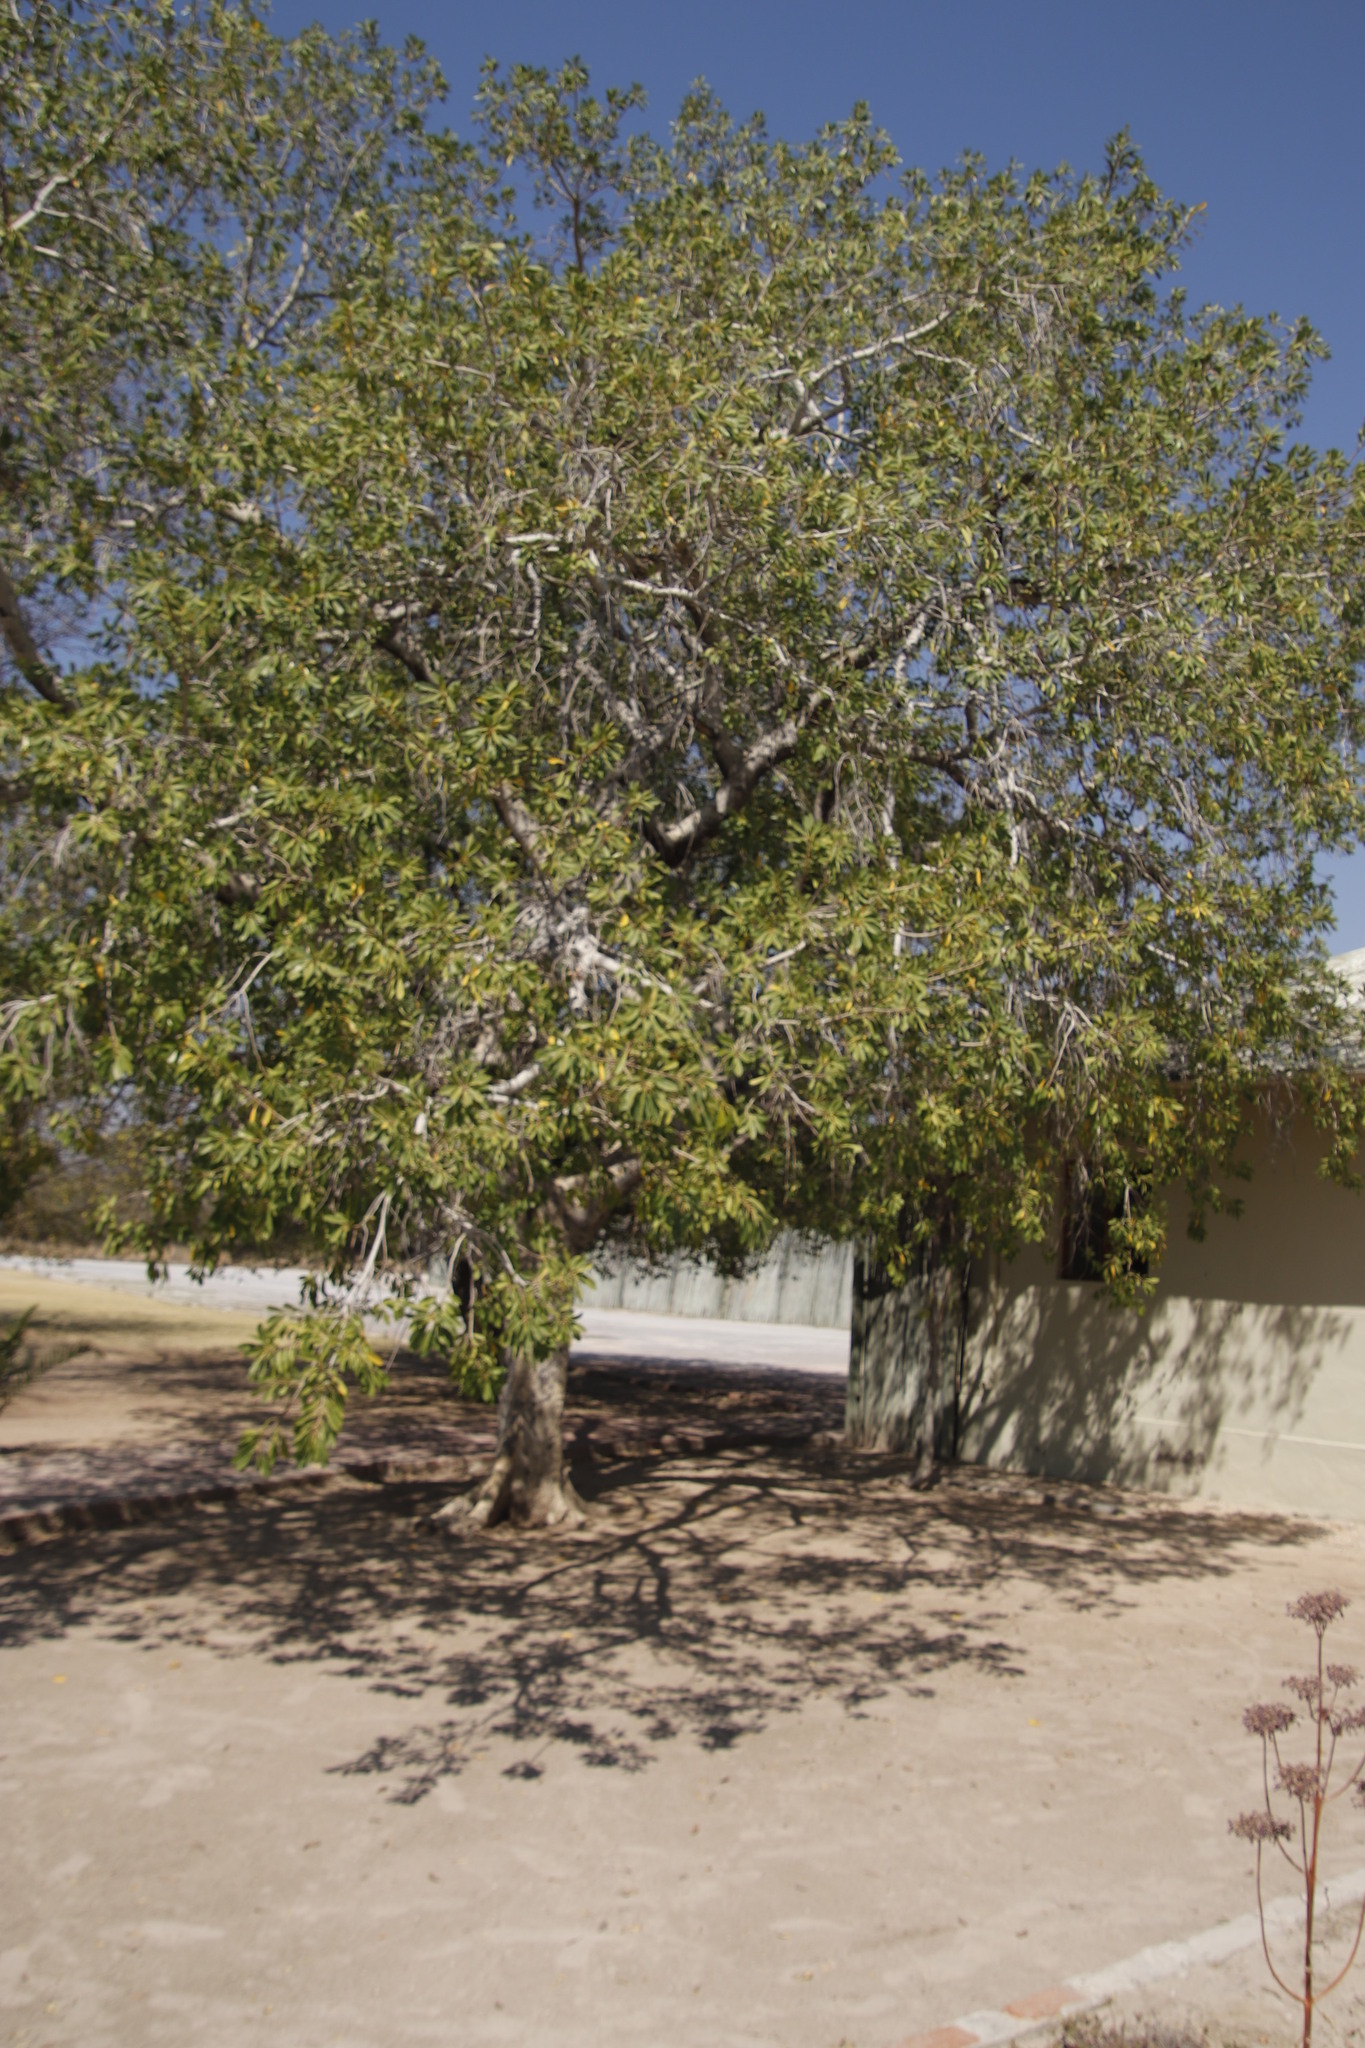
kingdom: Plantae
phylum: Tracheophyta
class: Magnoliopsida
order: Rosales
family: Moraceae
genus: Ficus
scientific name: Ficus petersii
